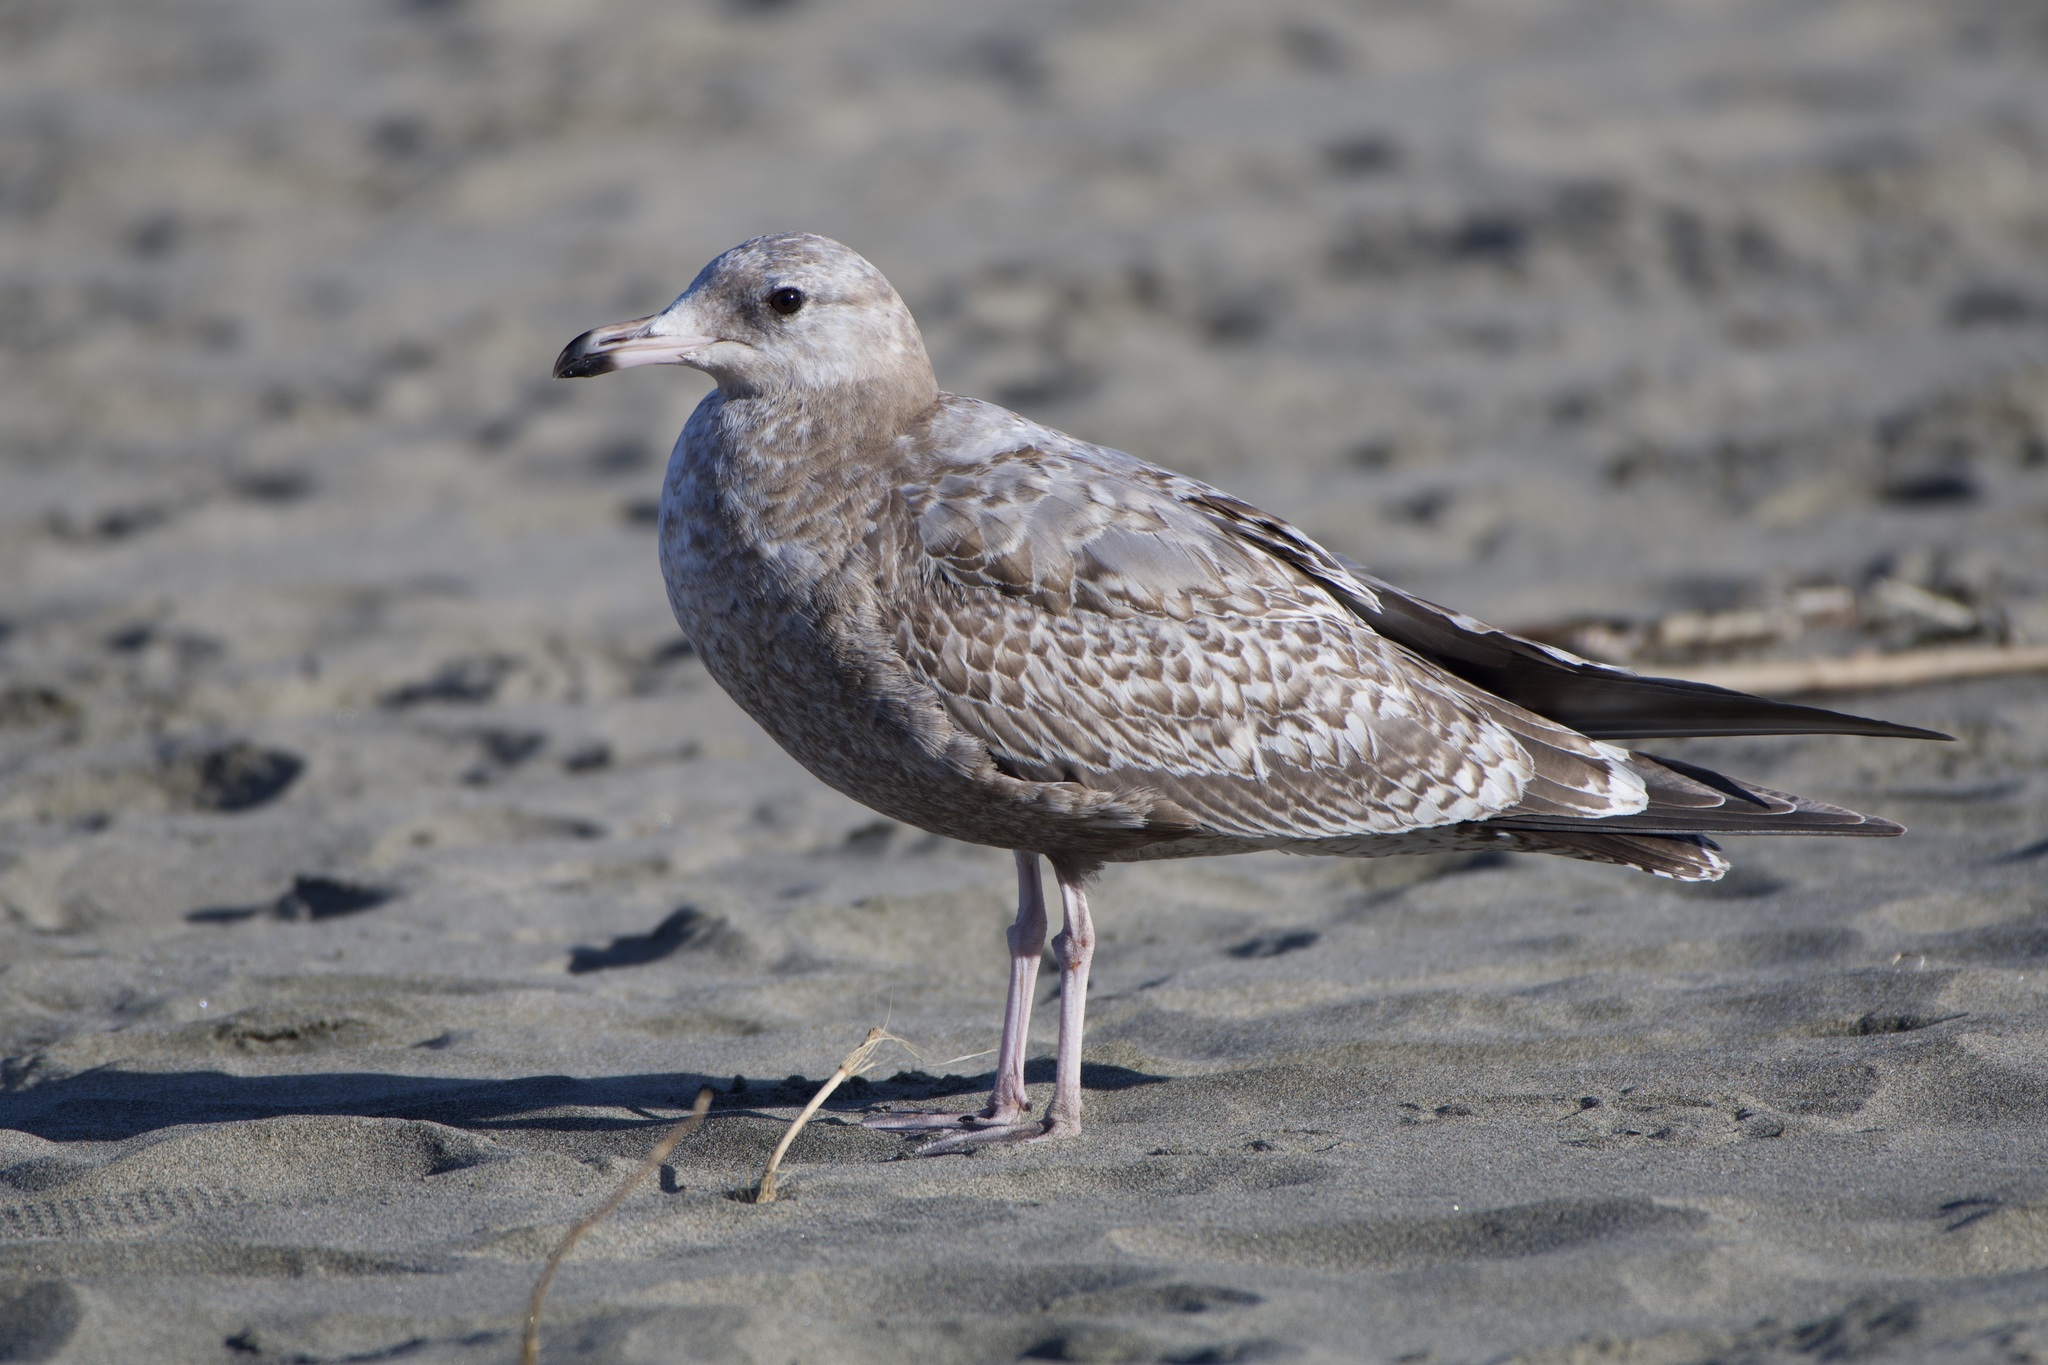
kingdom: Animalia
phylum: Chordata
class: Aves
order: Charadriiformes
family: Laridae
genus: Larus
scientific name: Larus argentatus
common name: Herring gull
